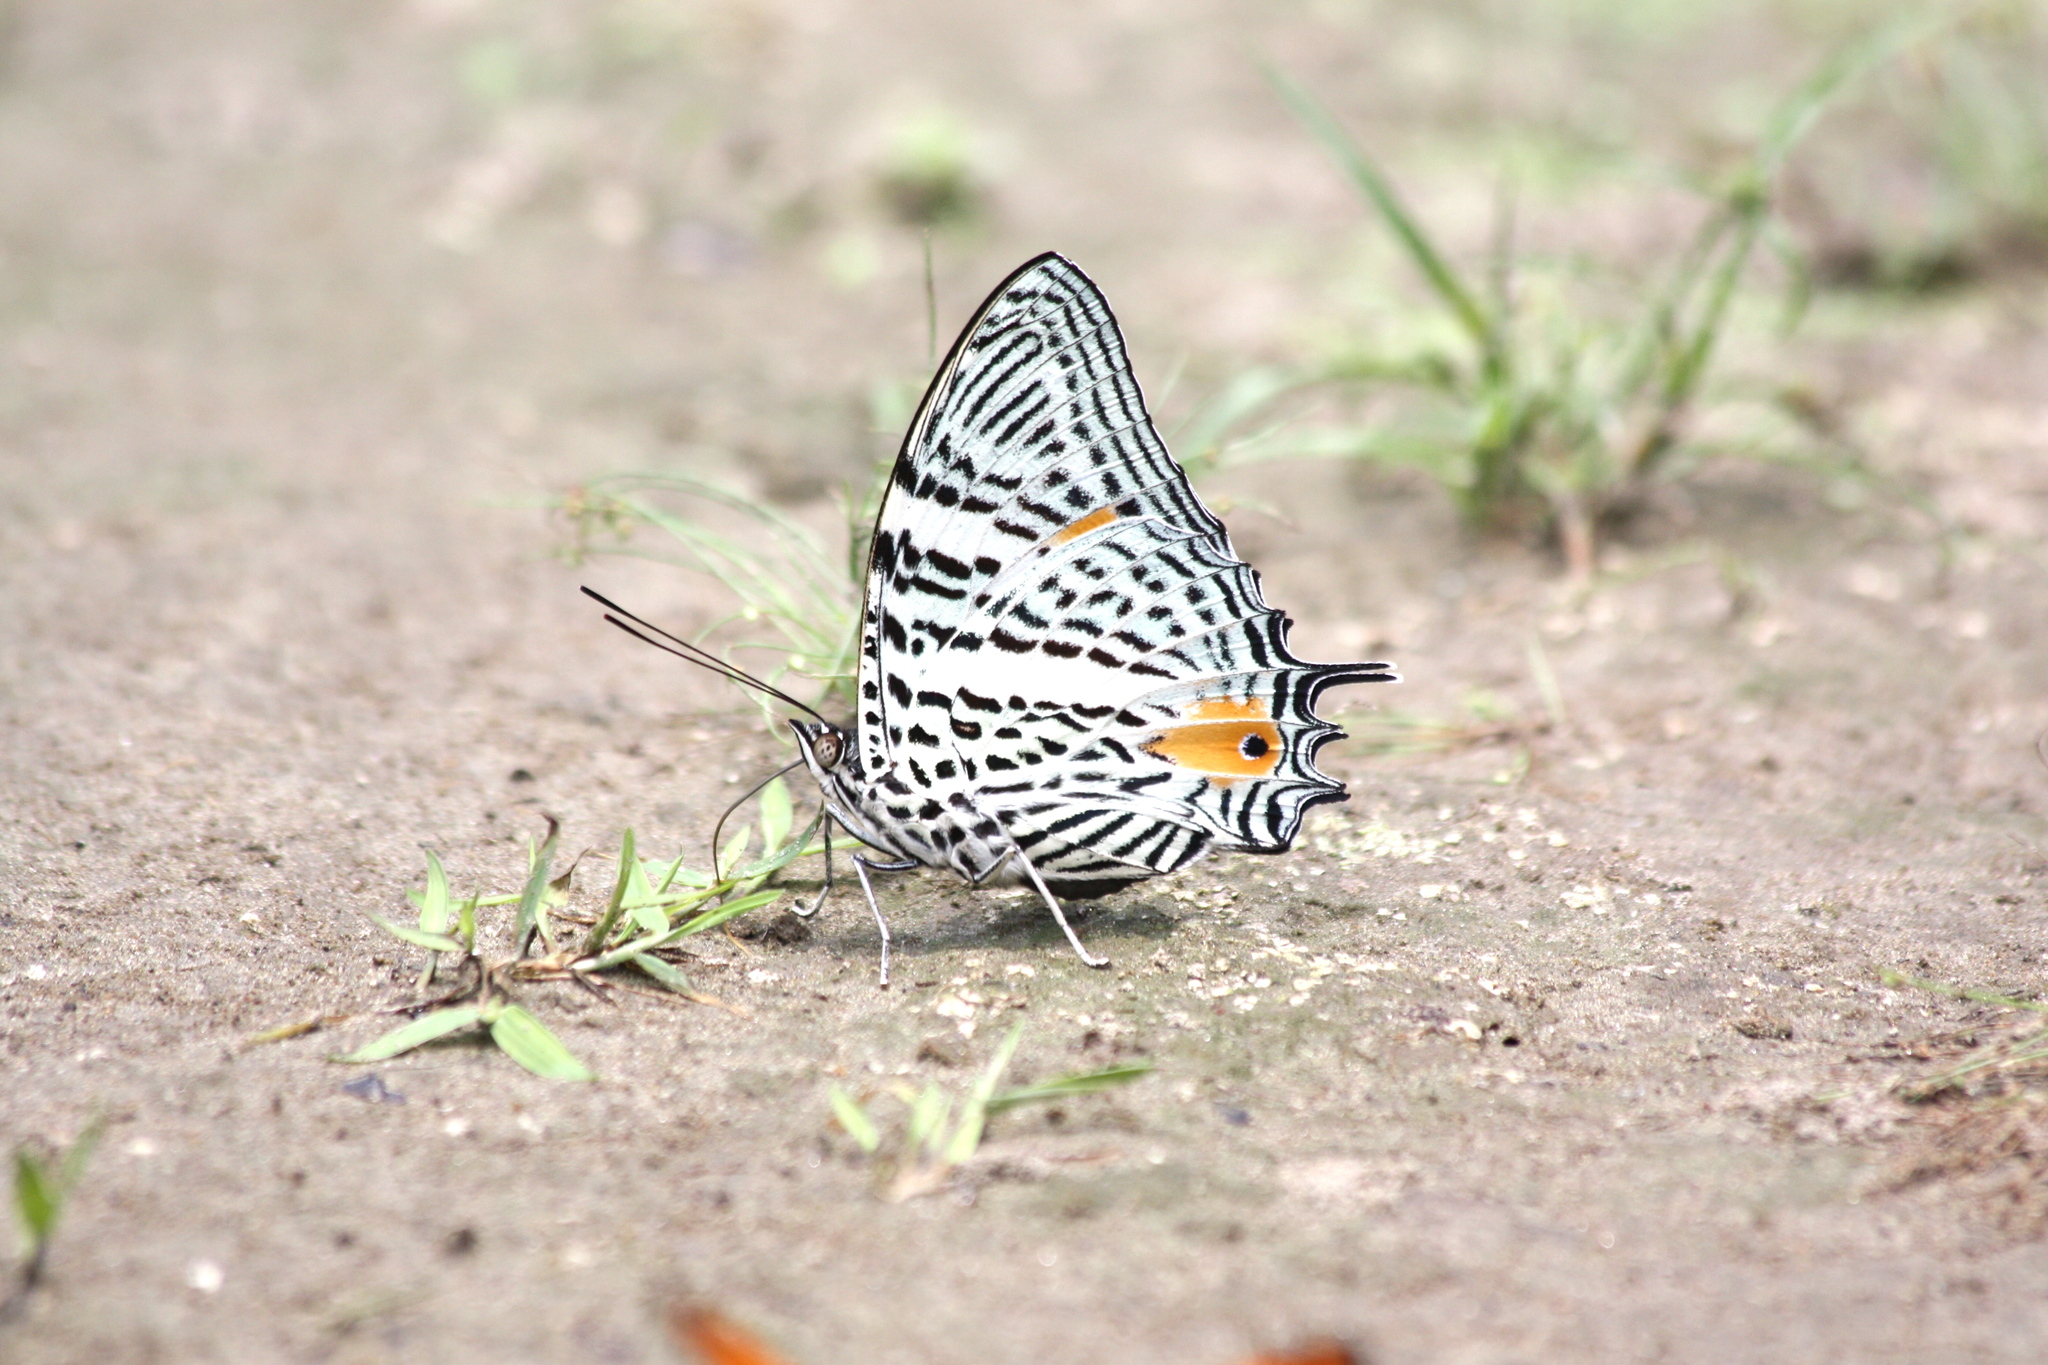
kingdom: Animalia
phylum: Arthropoda
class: Insecta
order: Lepidoptera
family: Nymphalidae
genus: Baeotus
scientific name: Baeotus aeilus
